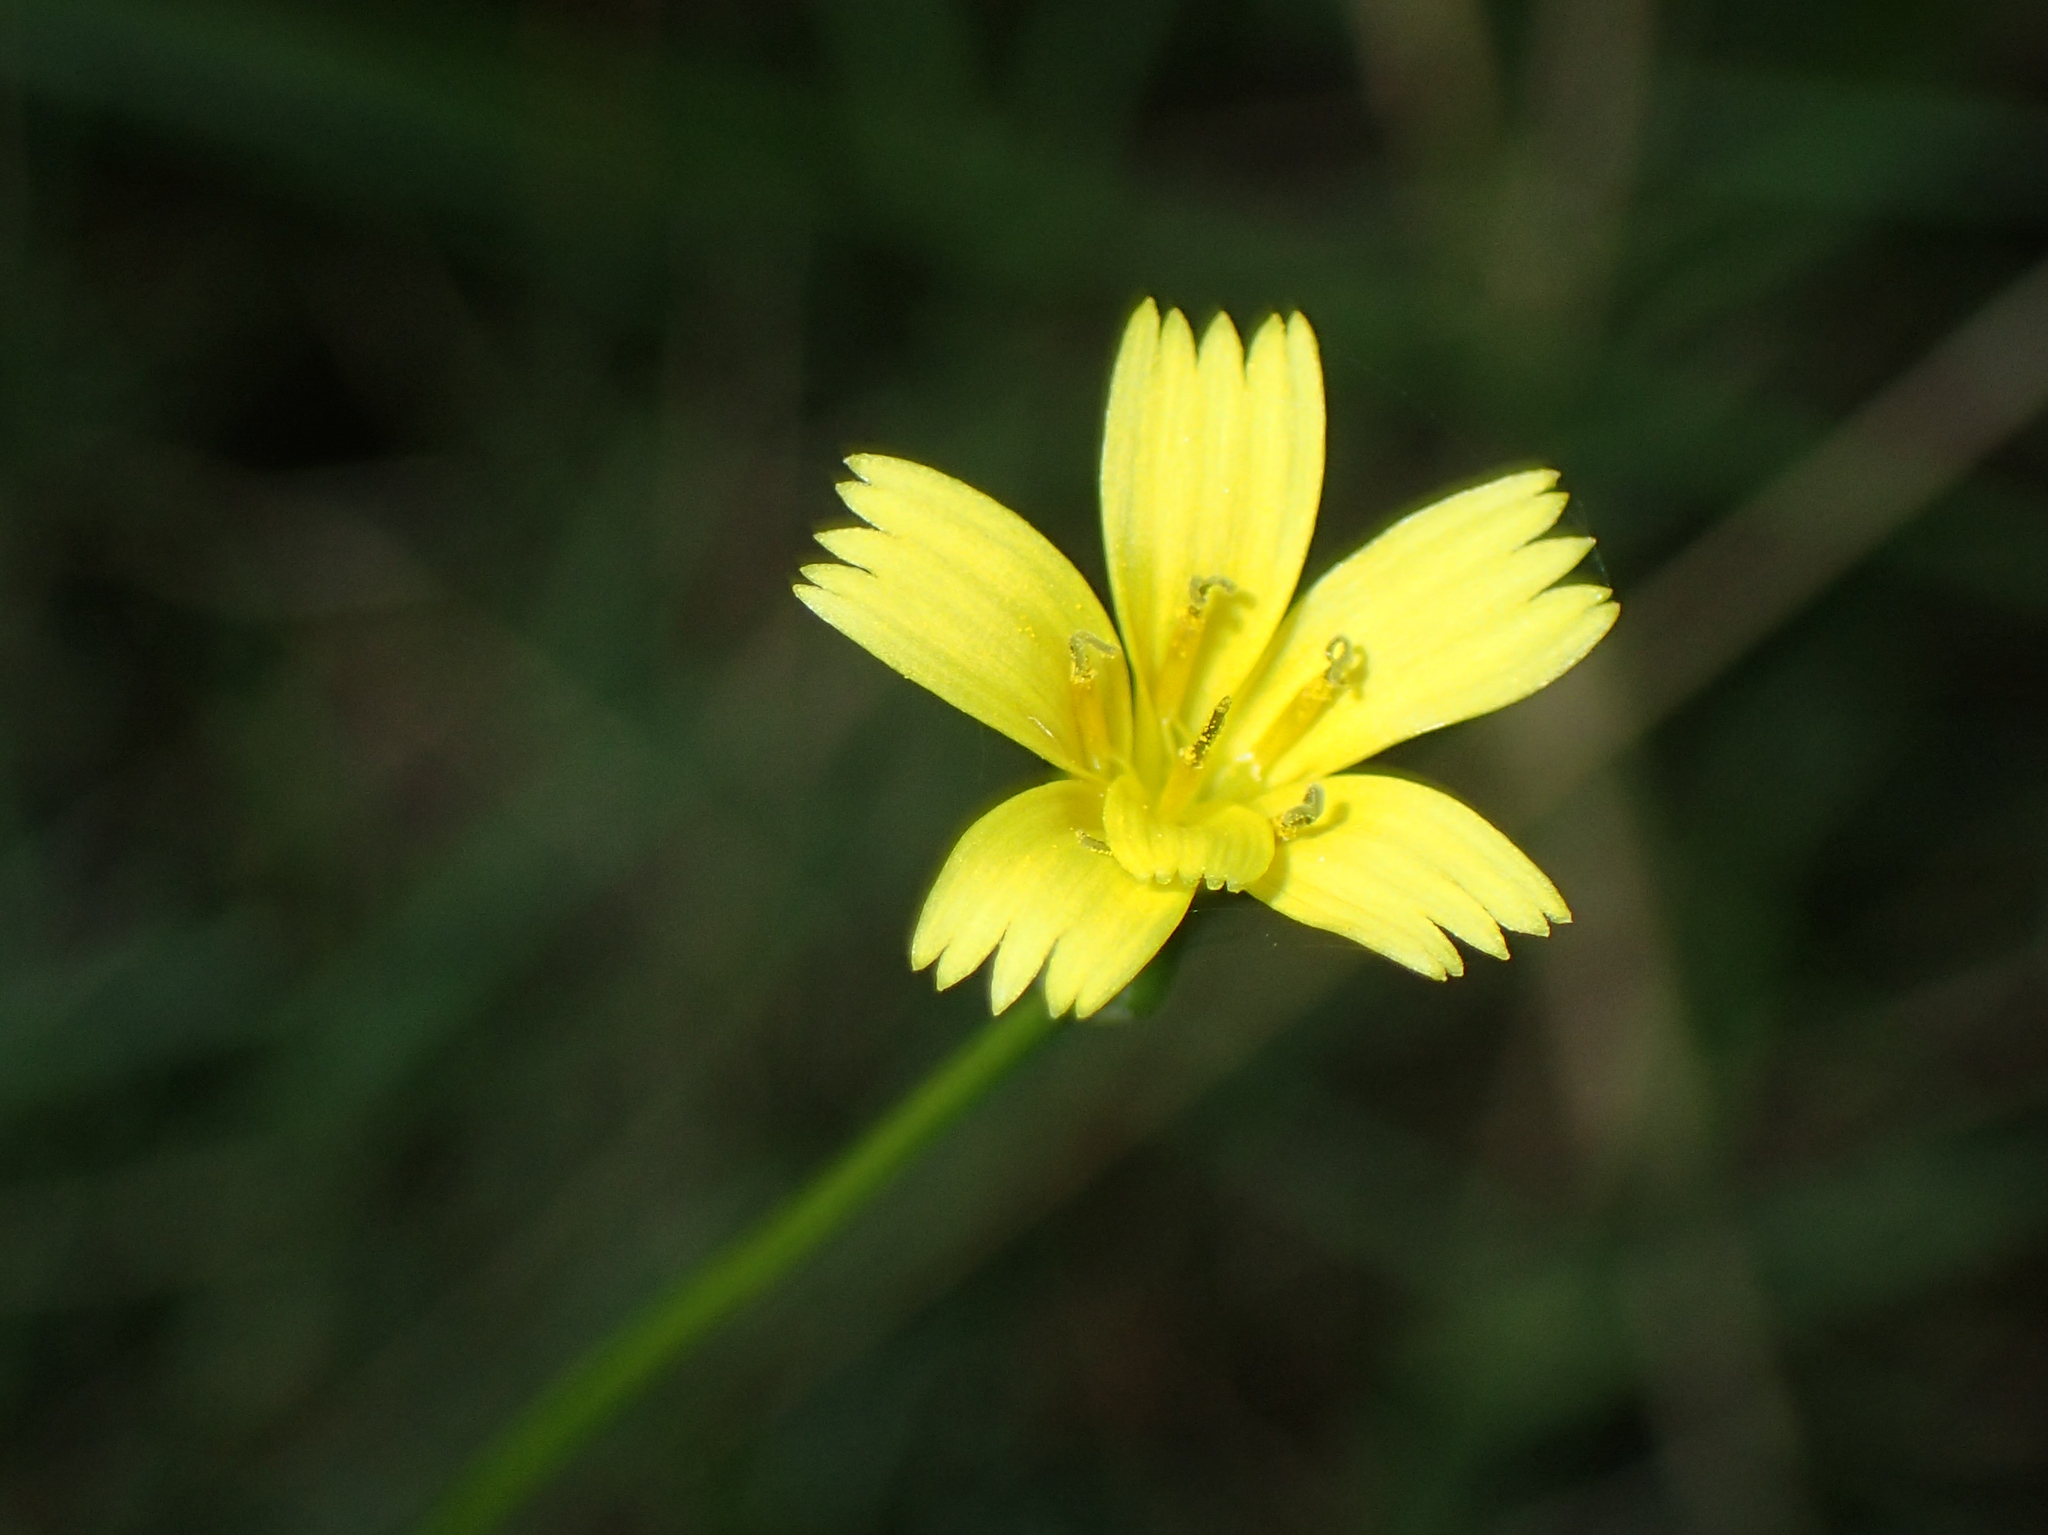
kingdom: Plantae
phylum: Tracheophyta
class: Magnoliopsida
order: Asterales
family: Asteraceae
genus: Rhagadiolus
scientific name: Rhagadiolus edulis
